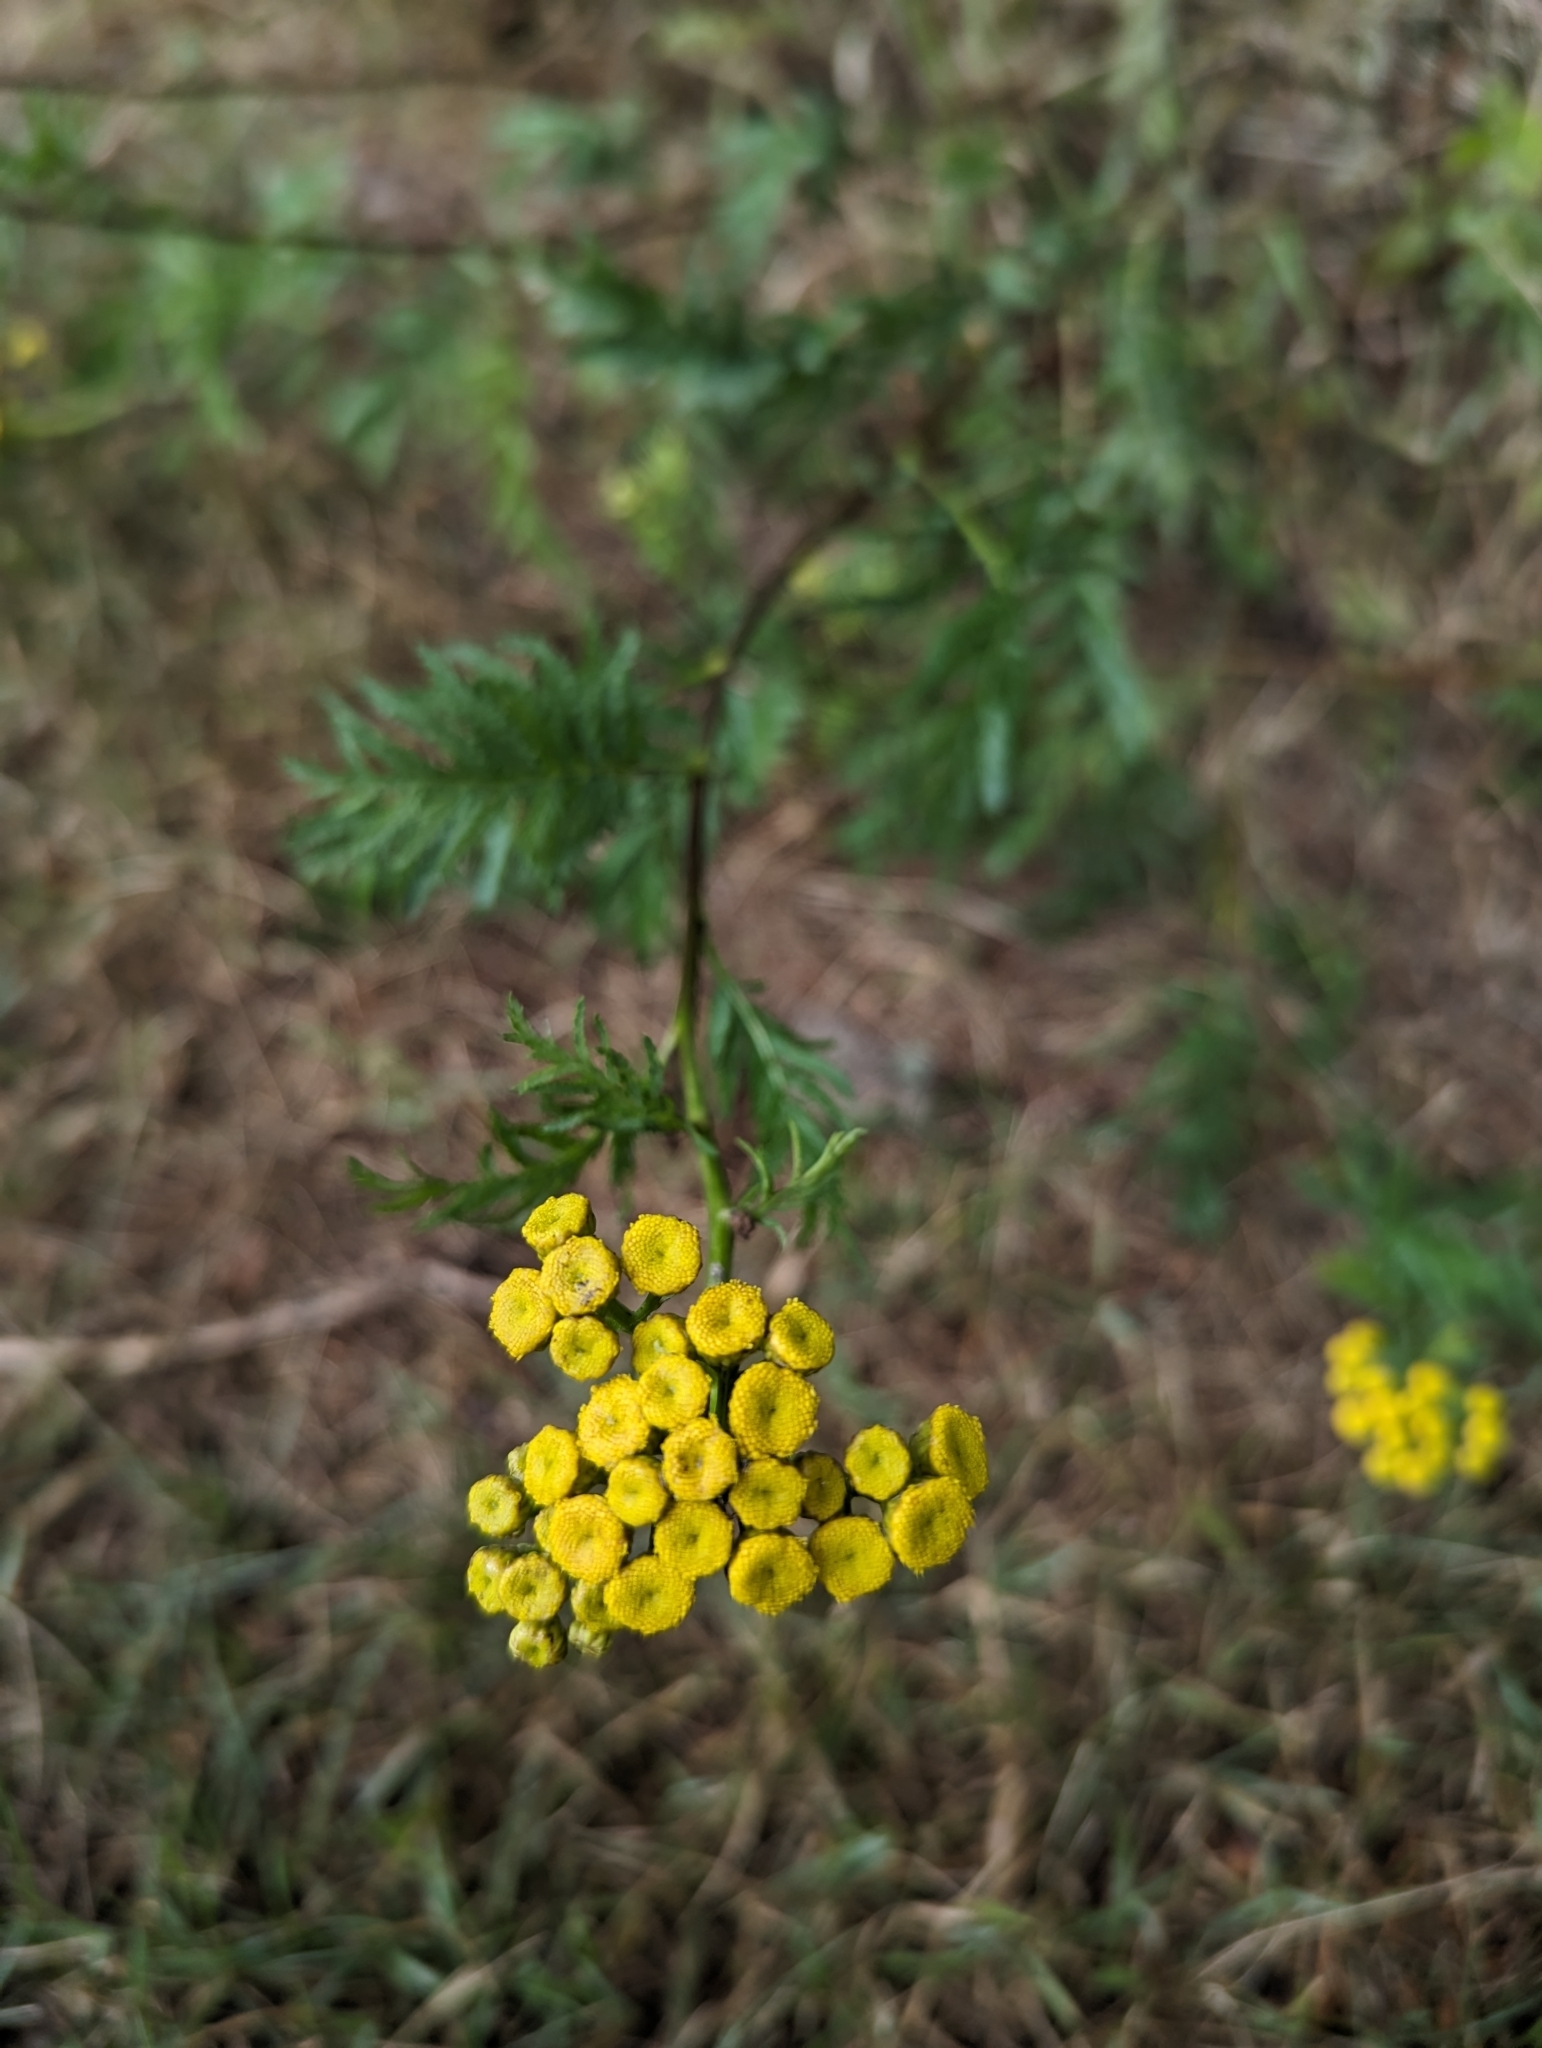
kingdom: Plantae
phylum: Tracheophyta
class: Magnoliopsida
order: Asterales
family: Asteraceae
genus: Tanacetum
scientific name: Tanacetum vulgare
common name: Common tansy
